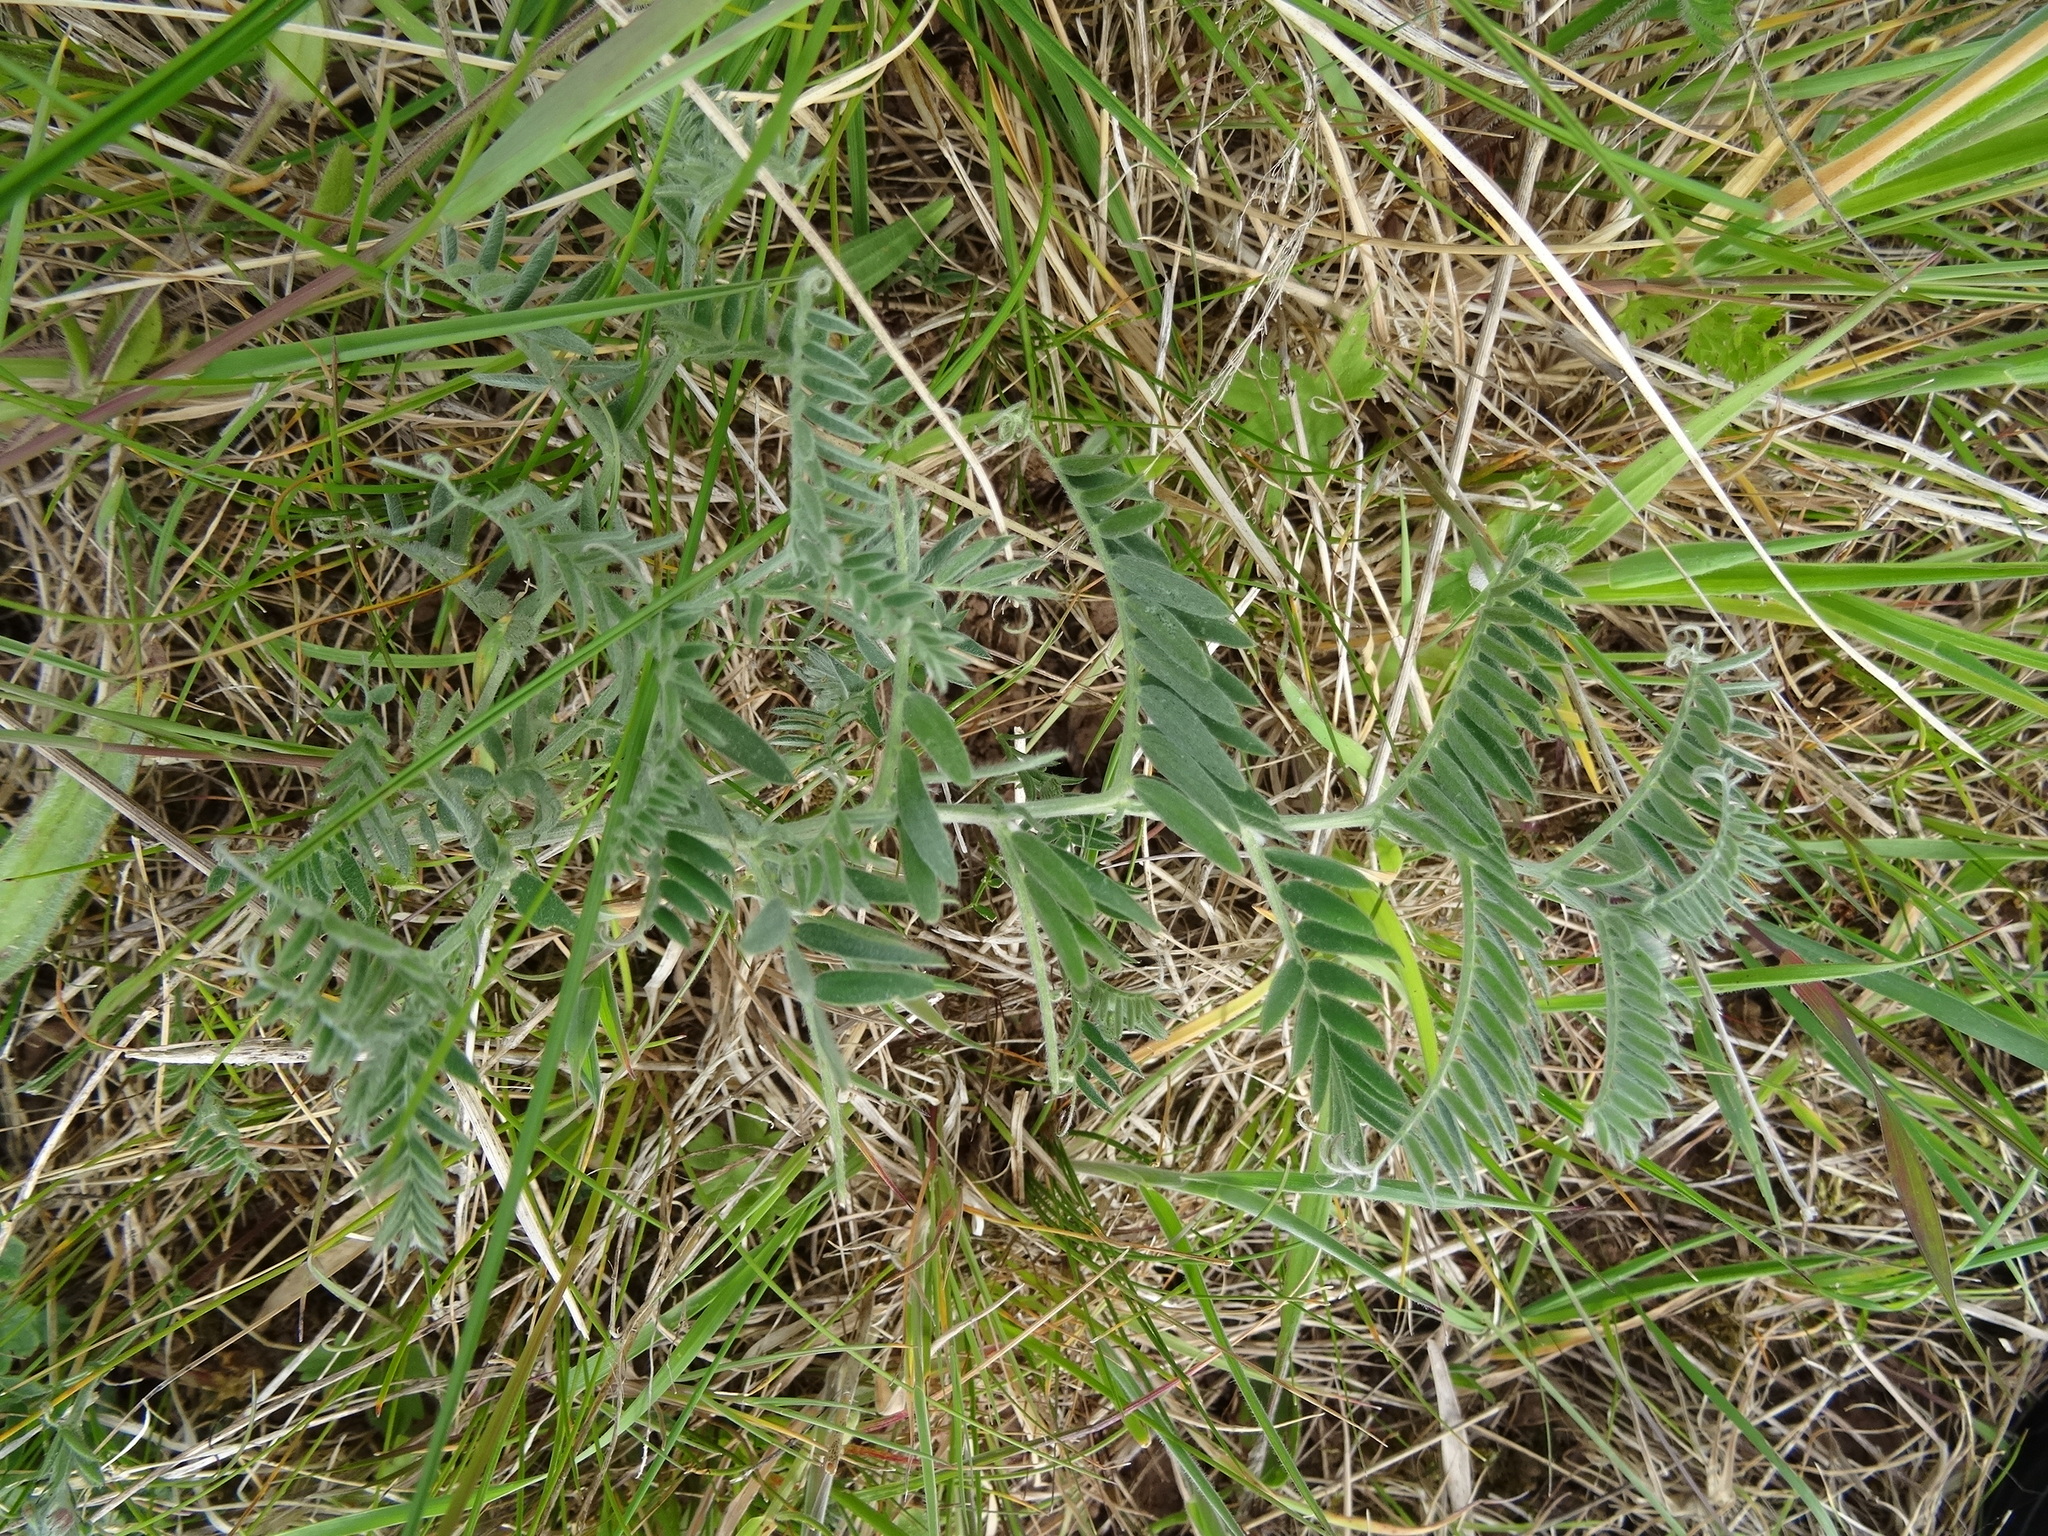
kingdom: Plantae
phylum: Tracheophyta
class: Magnoliopsida
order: Fabales
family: Fabaceae
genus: Vicia
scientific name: Vicia cracca
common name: Bird vetch
